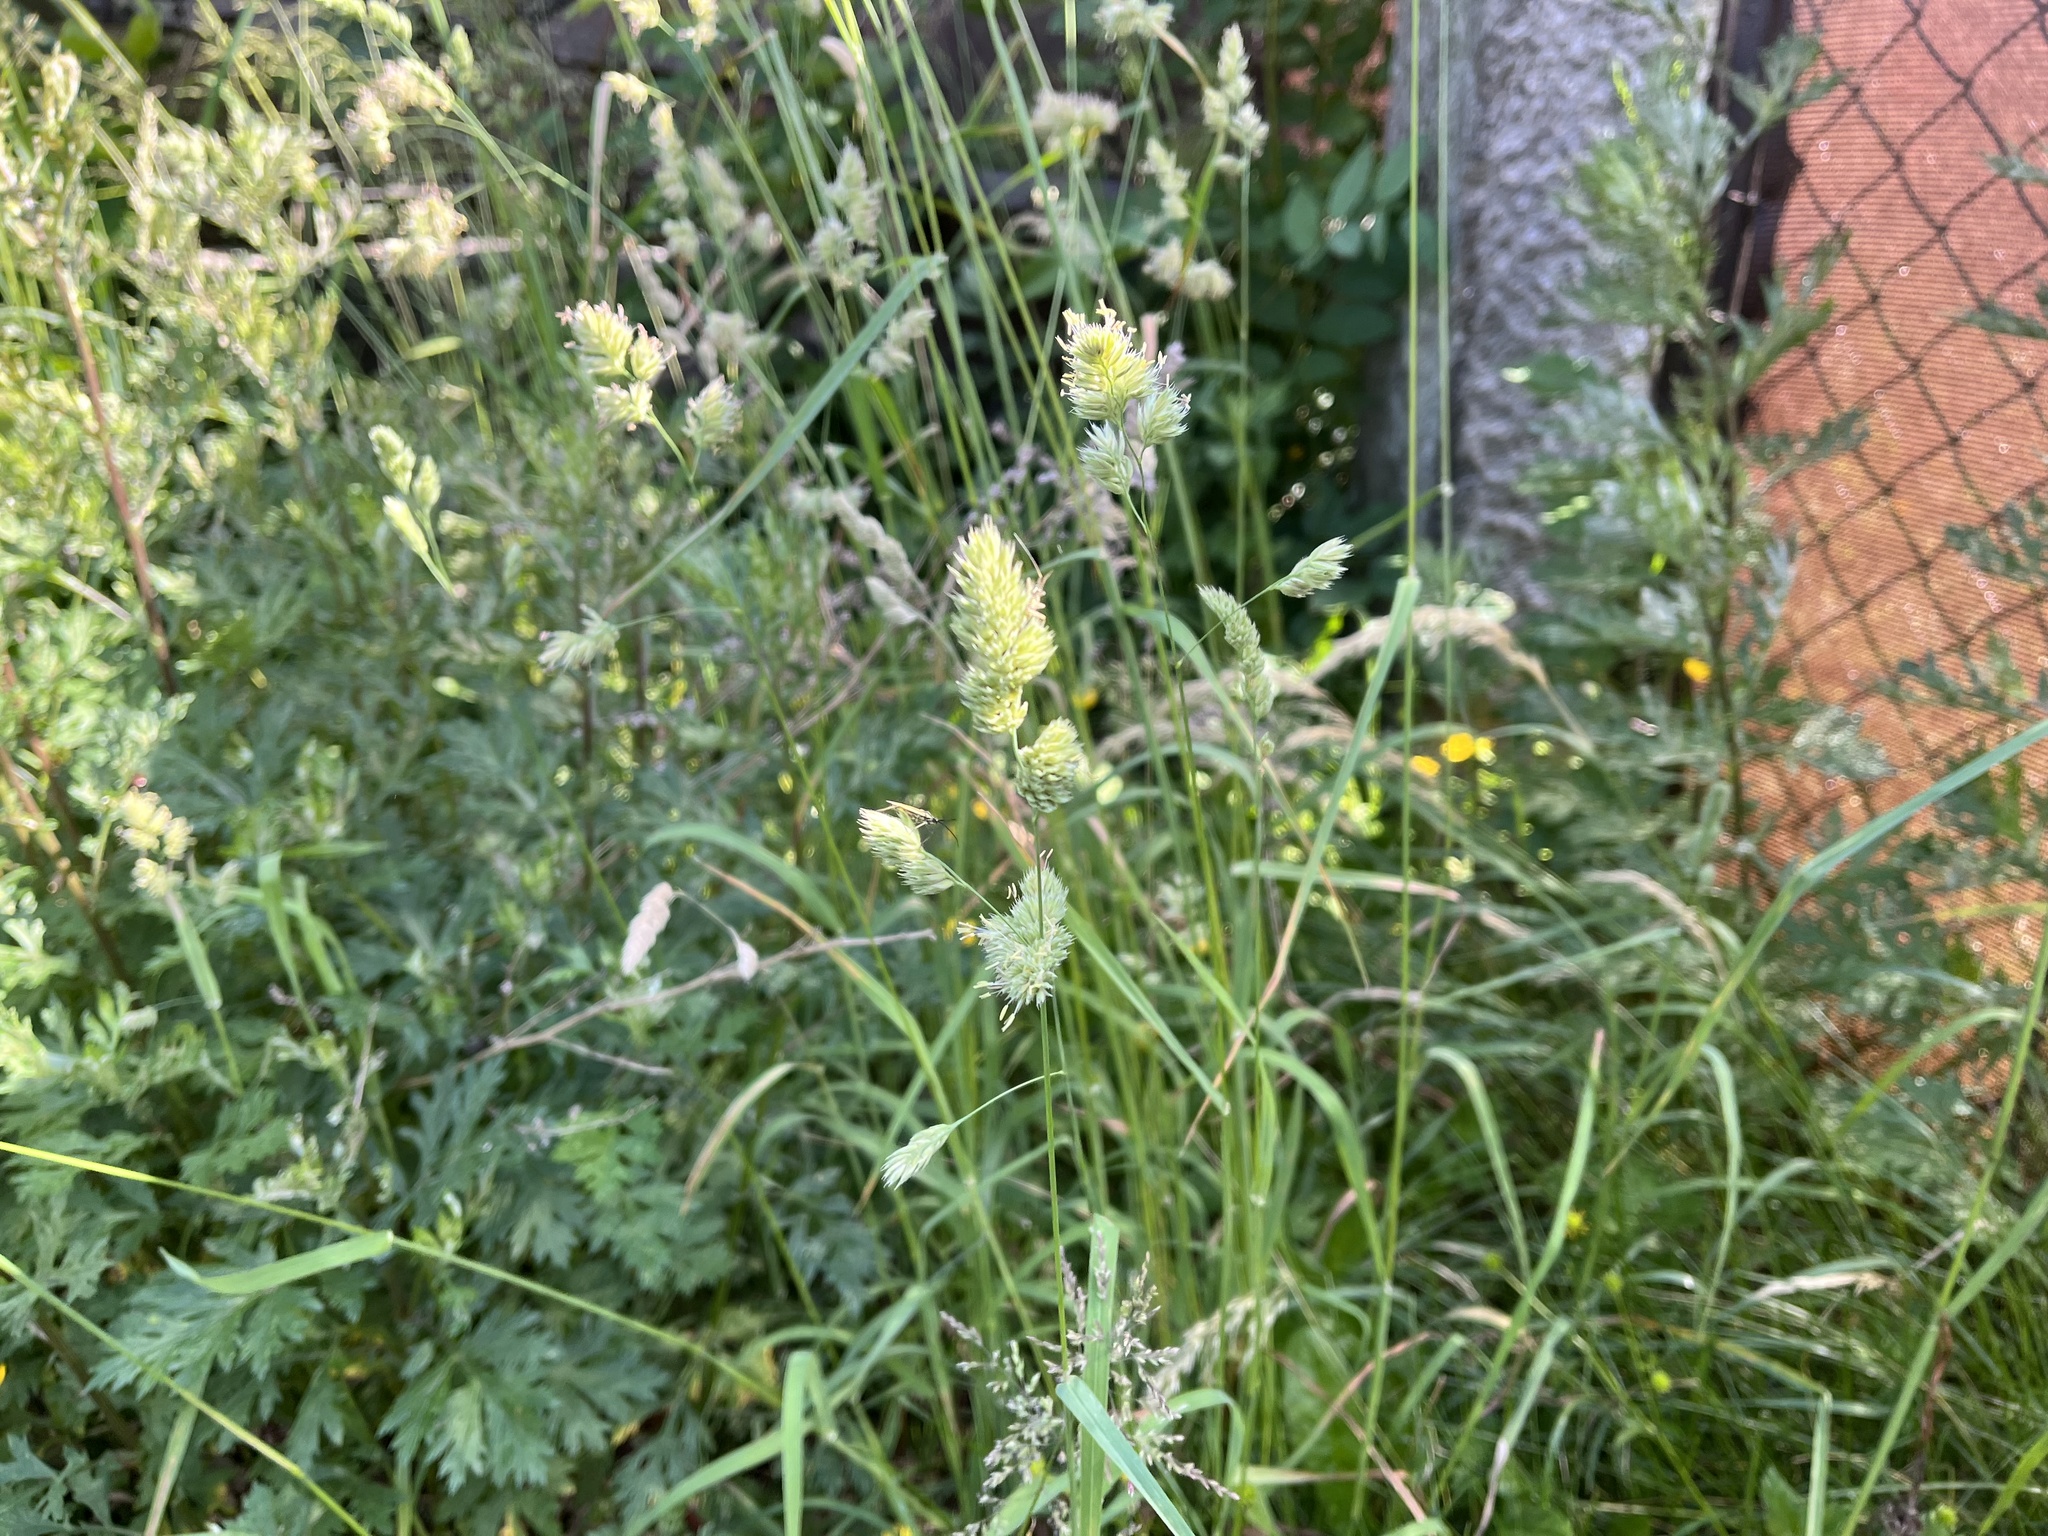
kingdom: Plantae
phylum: Tracheophyta
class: Liliopsida
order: Poales
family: Poaceae
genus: Dactylis
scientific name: Dactylis glomerata
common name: Orchardgrass
